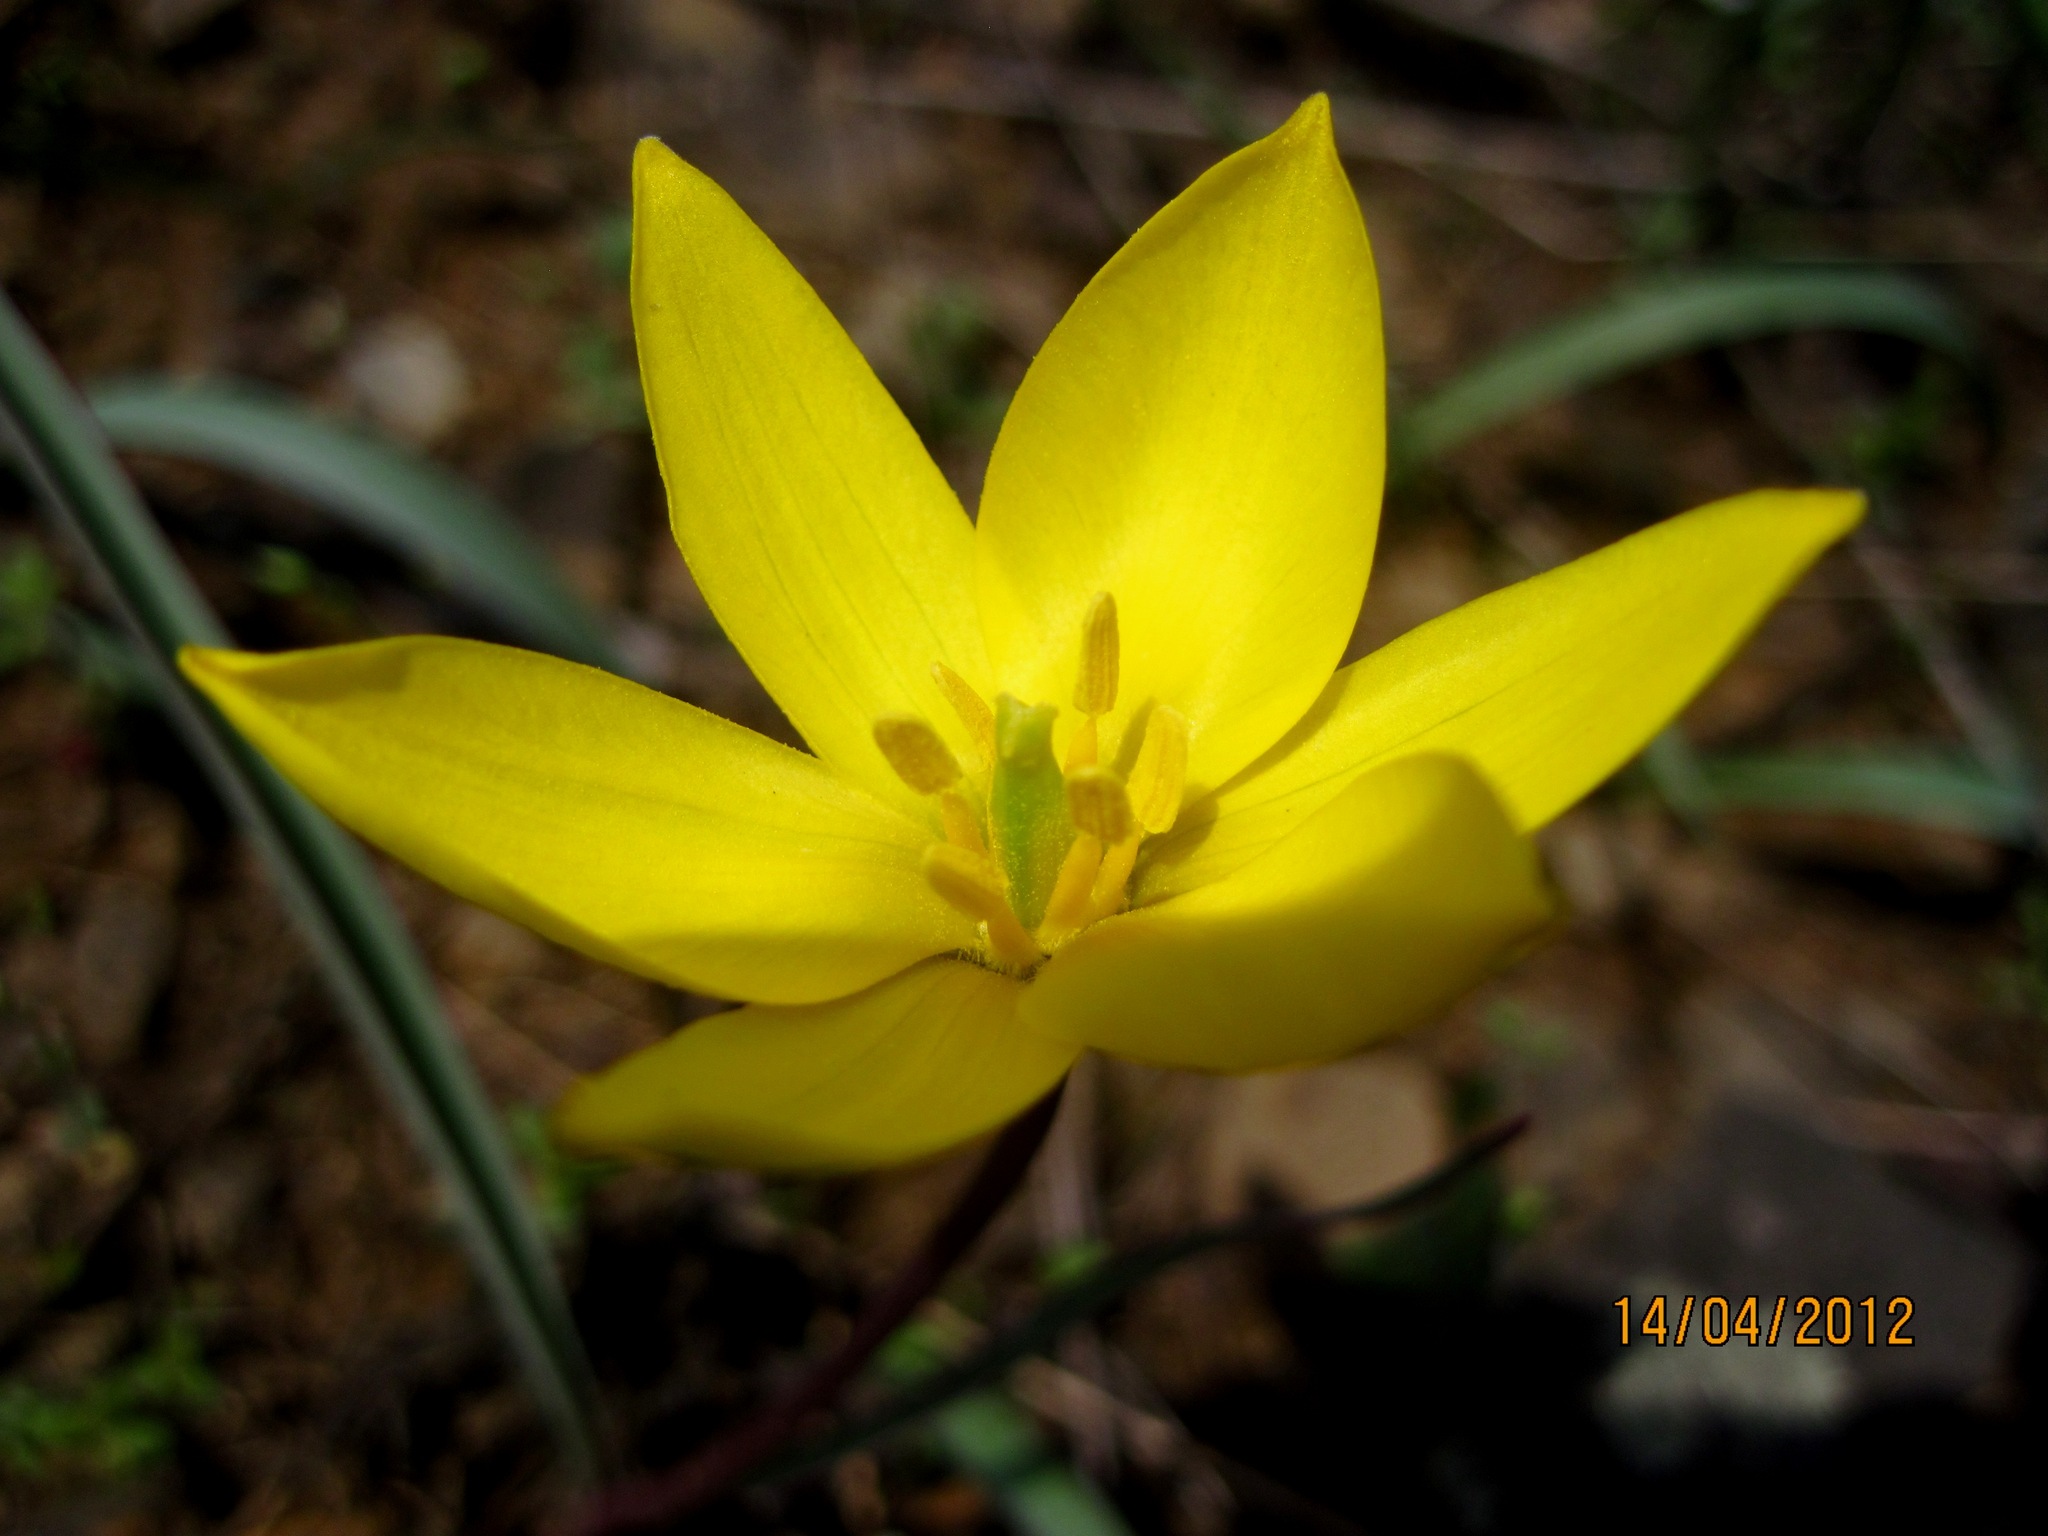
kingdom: Plantae
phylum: Tracheophyta
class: Liliopsida
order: Liliales
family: Liliaceae
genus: Tulipa
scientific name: Tulipa sylvestris
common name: Wild tulip
